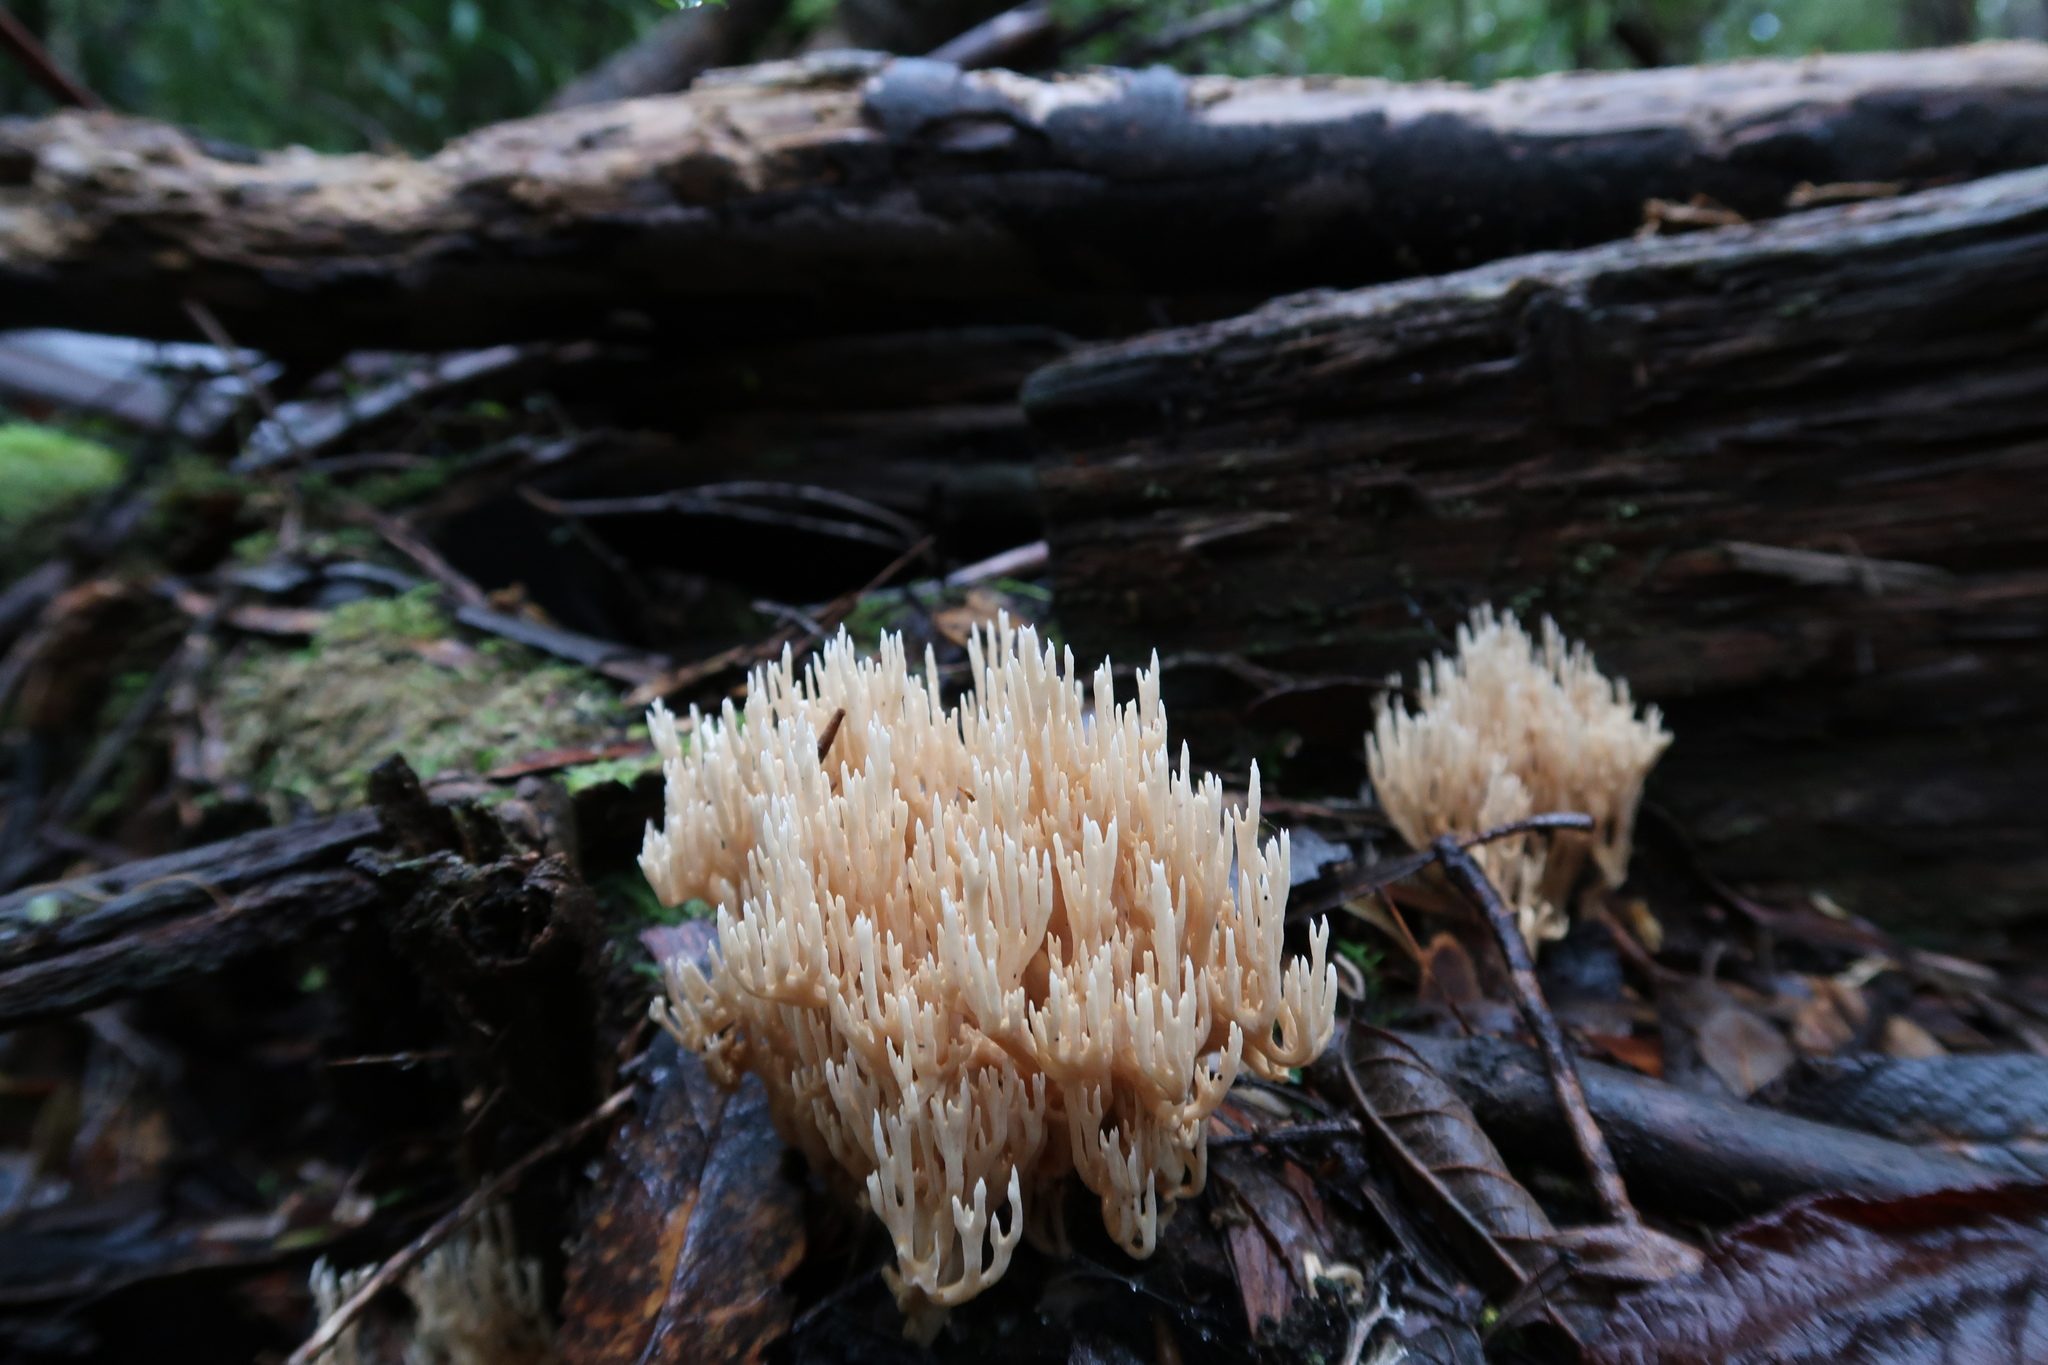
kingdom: Fungi
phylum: Basidiomycota
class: Agaricomycetes
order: Gomphales
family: Gomphaceae
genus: Ramaria
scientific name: Ramaria filicicola
